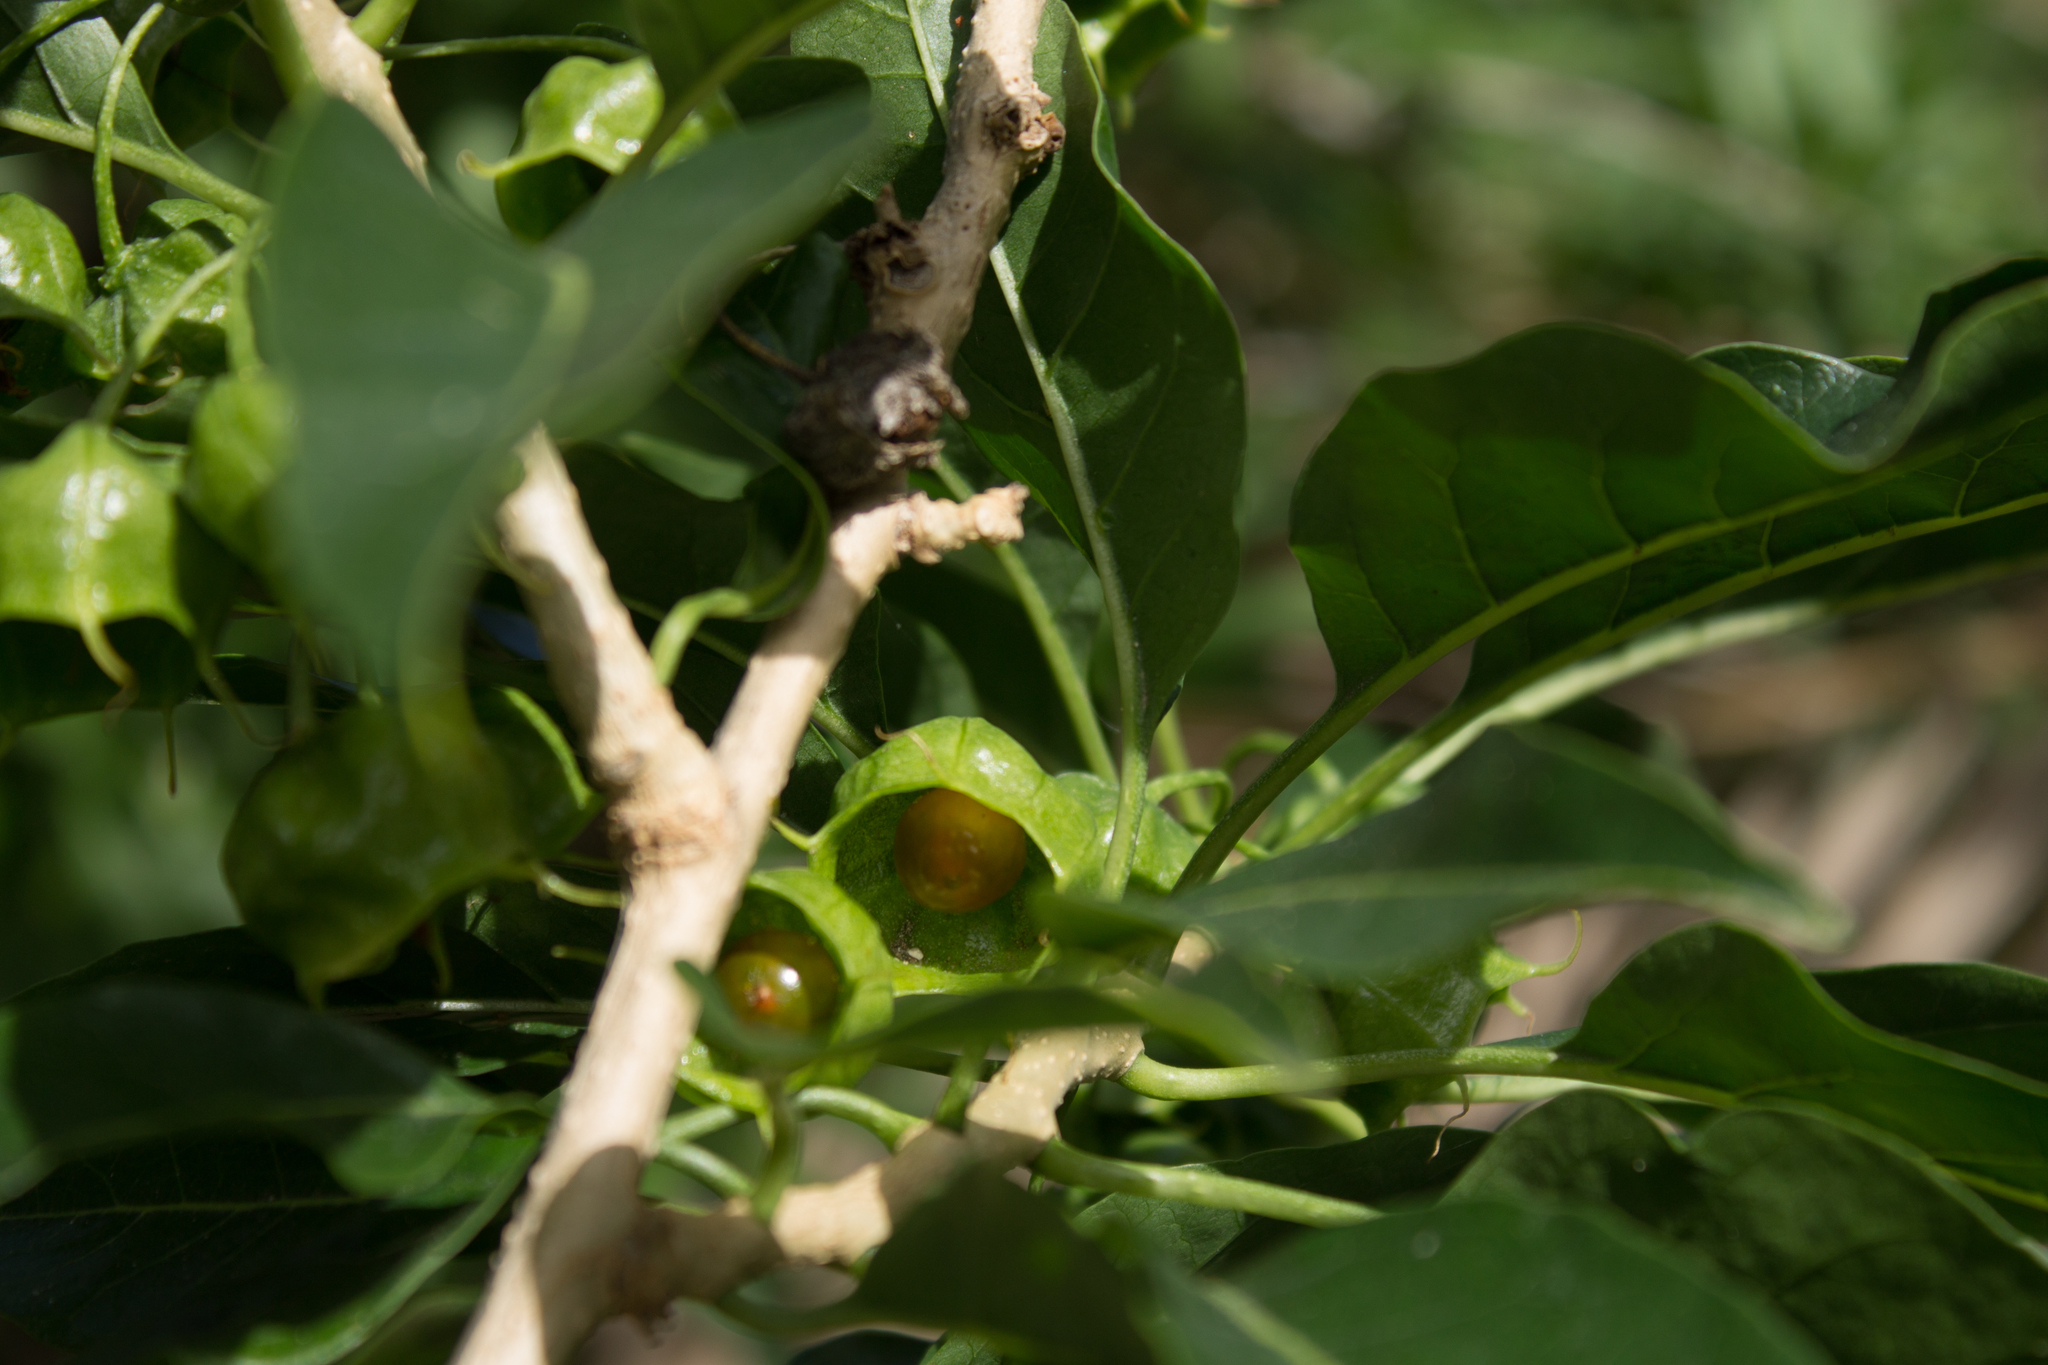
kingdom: Plantae
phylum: Tracheophyta
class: Magnoliopsida
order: Solanales
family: Solanaceae
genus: Withania
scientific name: Withania aristata
